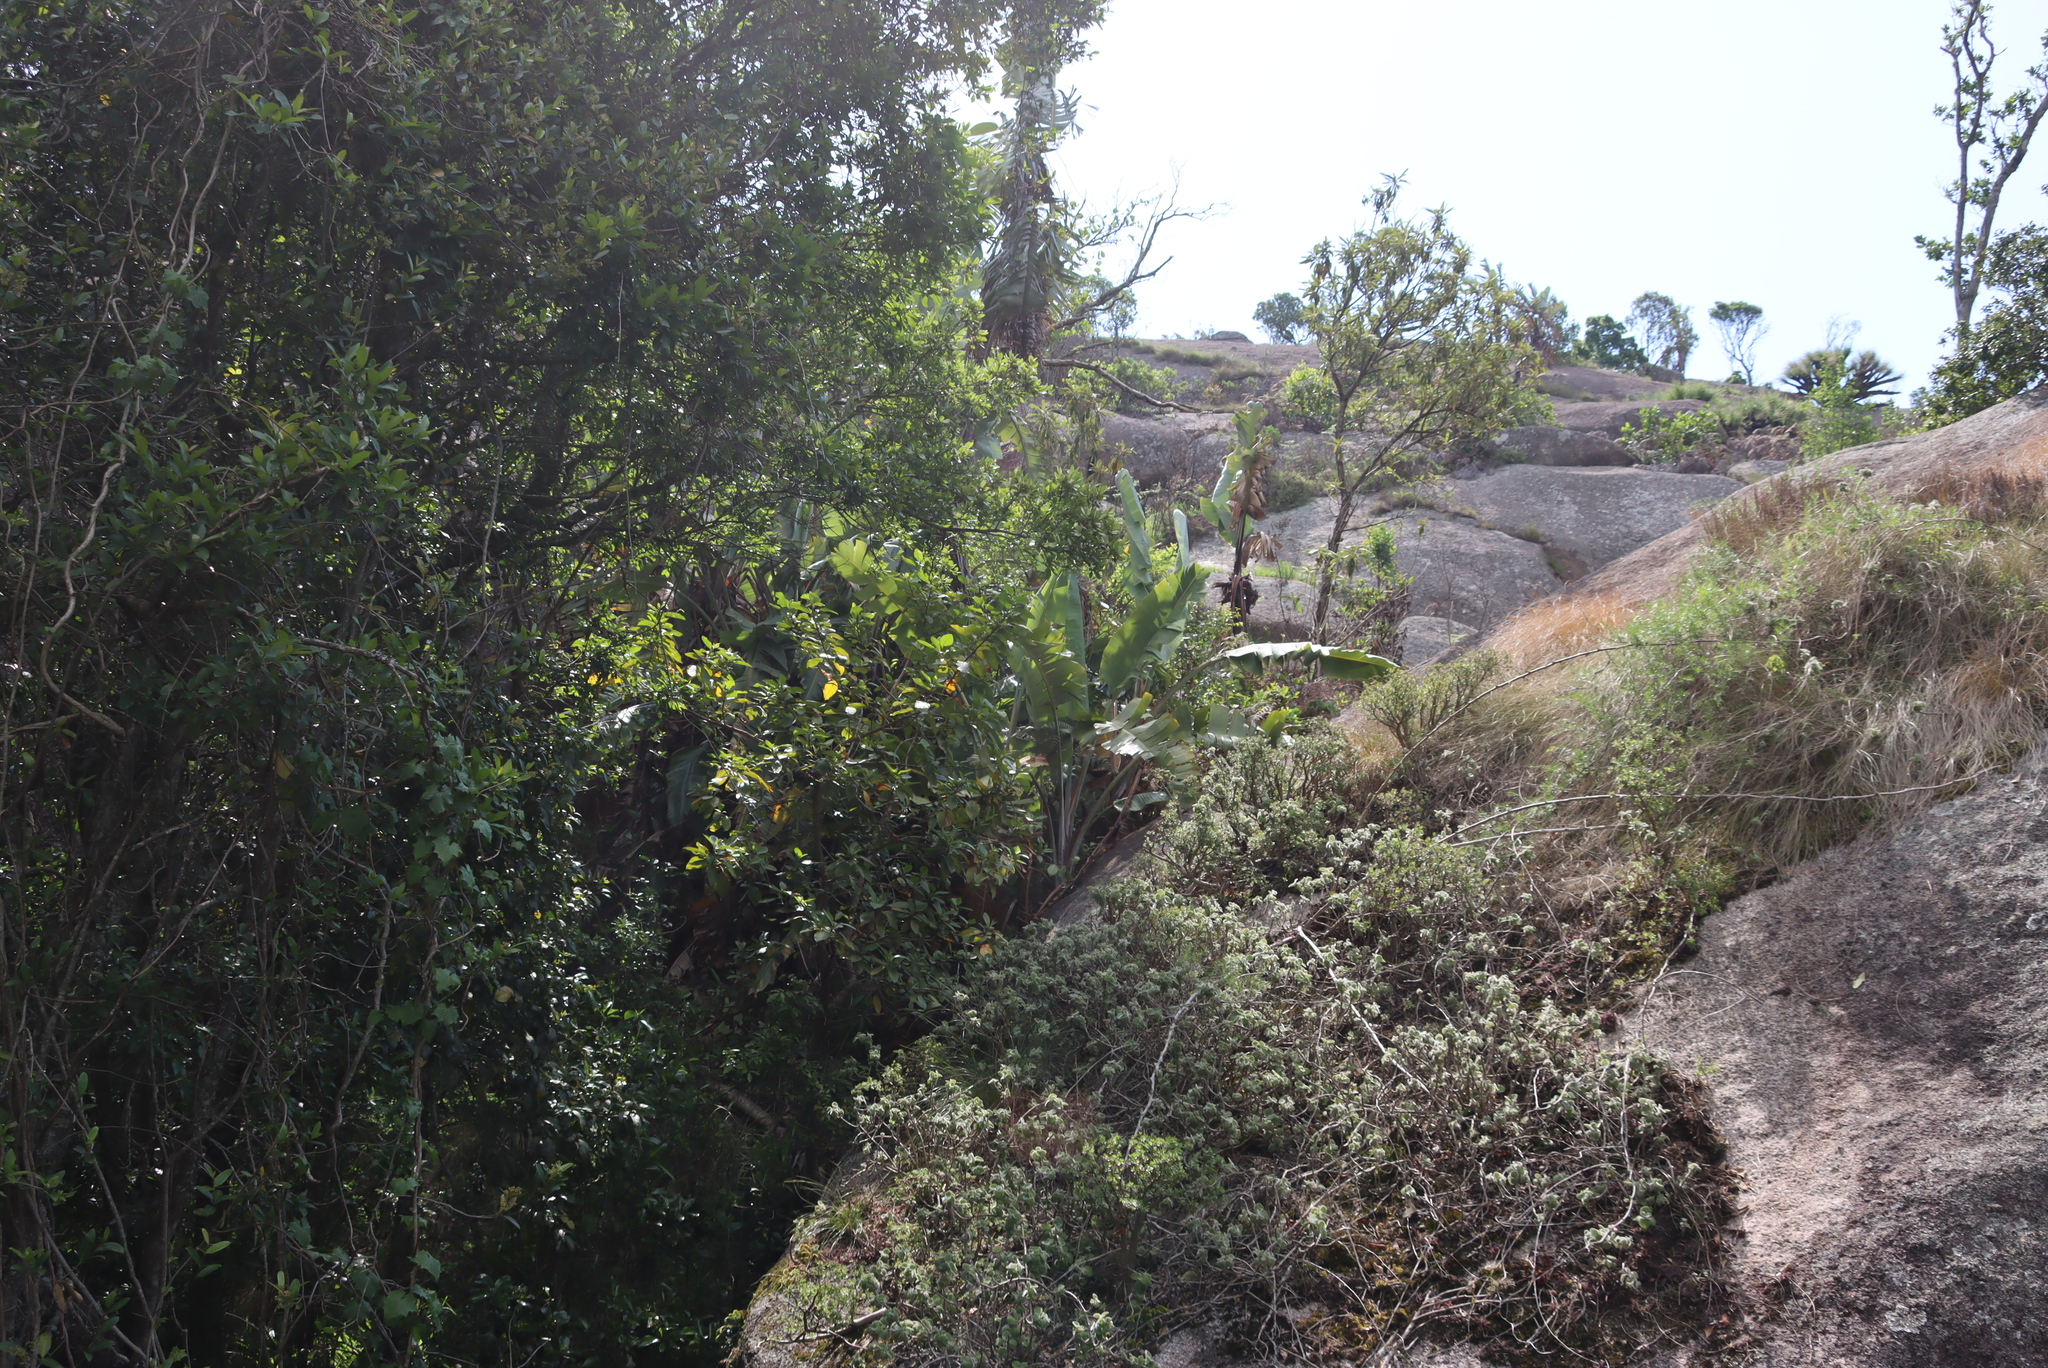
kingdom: Plantae
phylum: Tracheophyta
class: Liliopsida
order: Zingiberales
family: Strelitziaceae
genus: Strelitzia
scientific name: Strelitzia caudata
